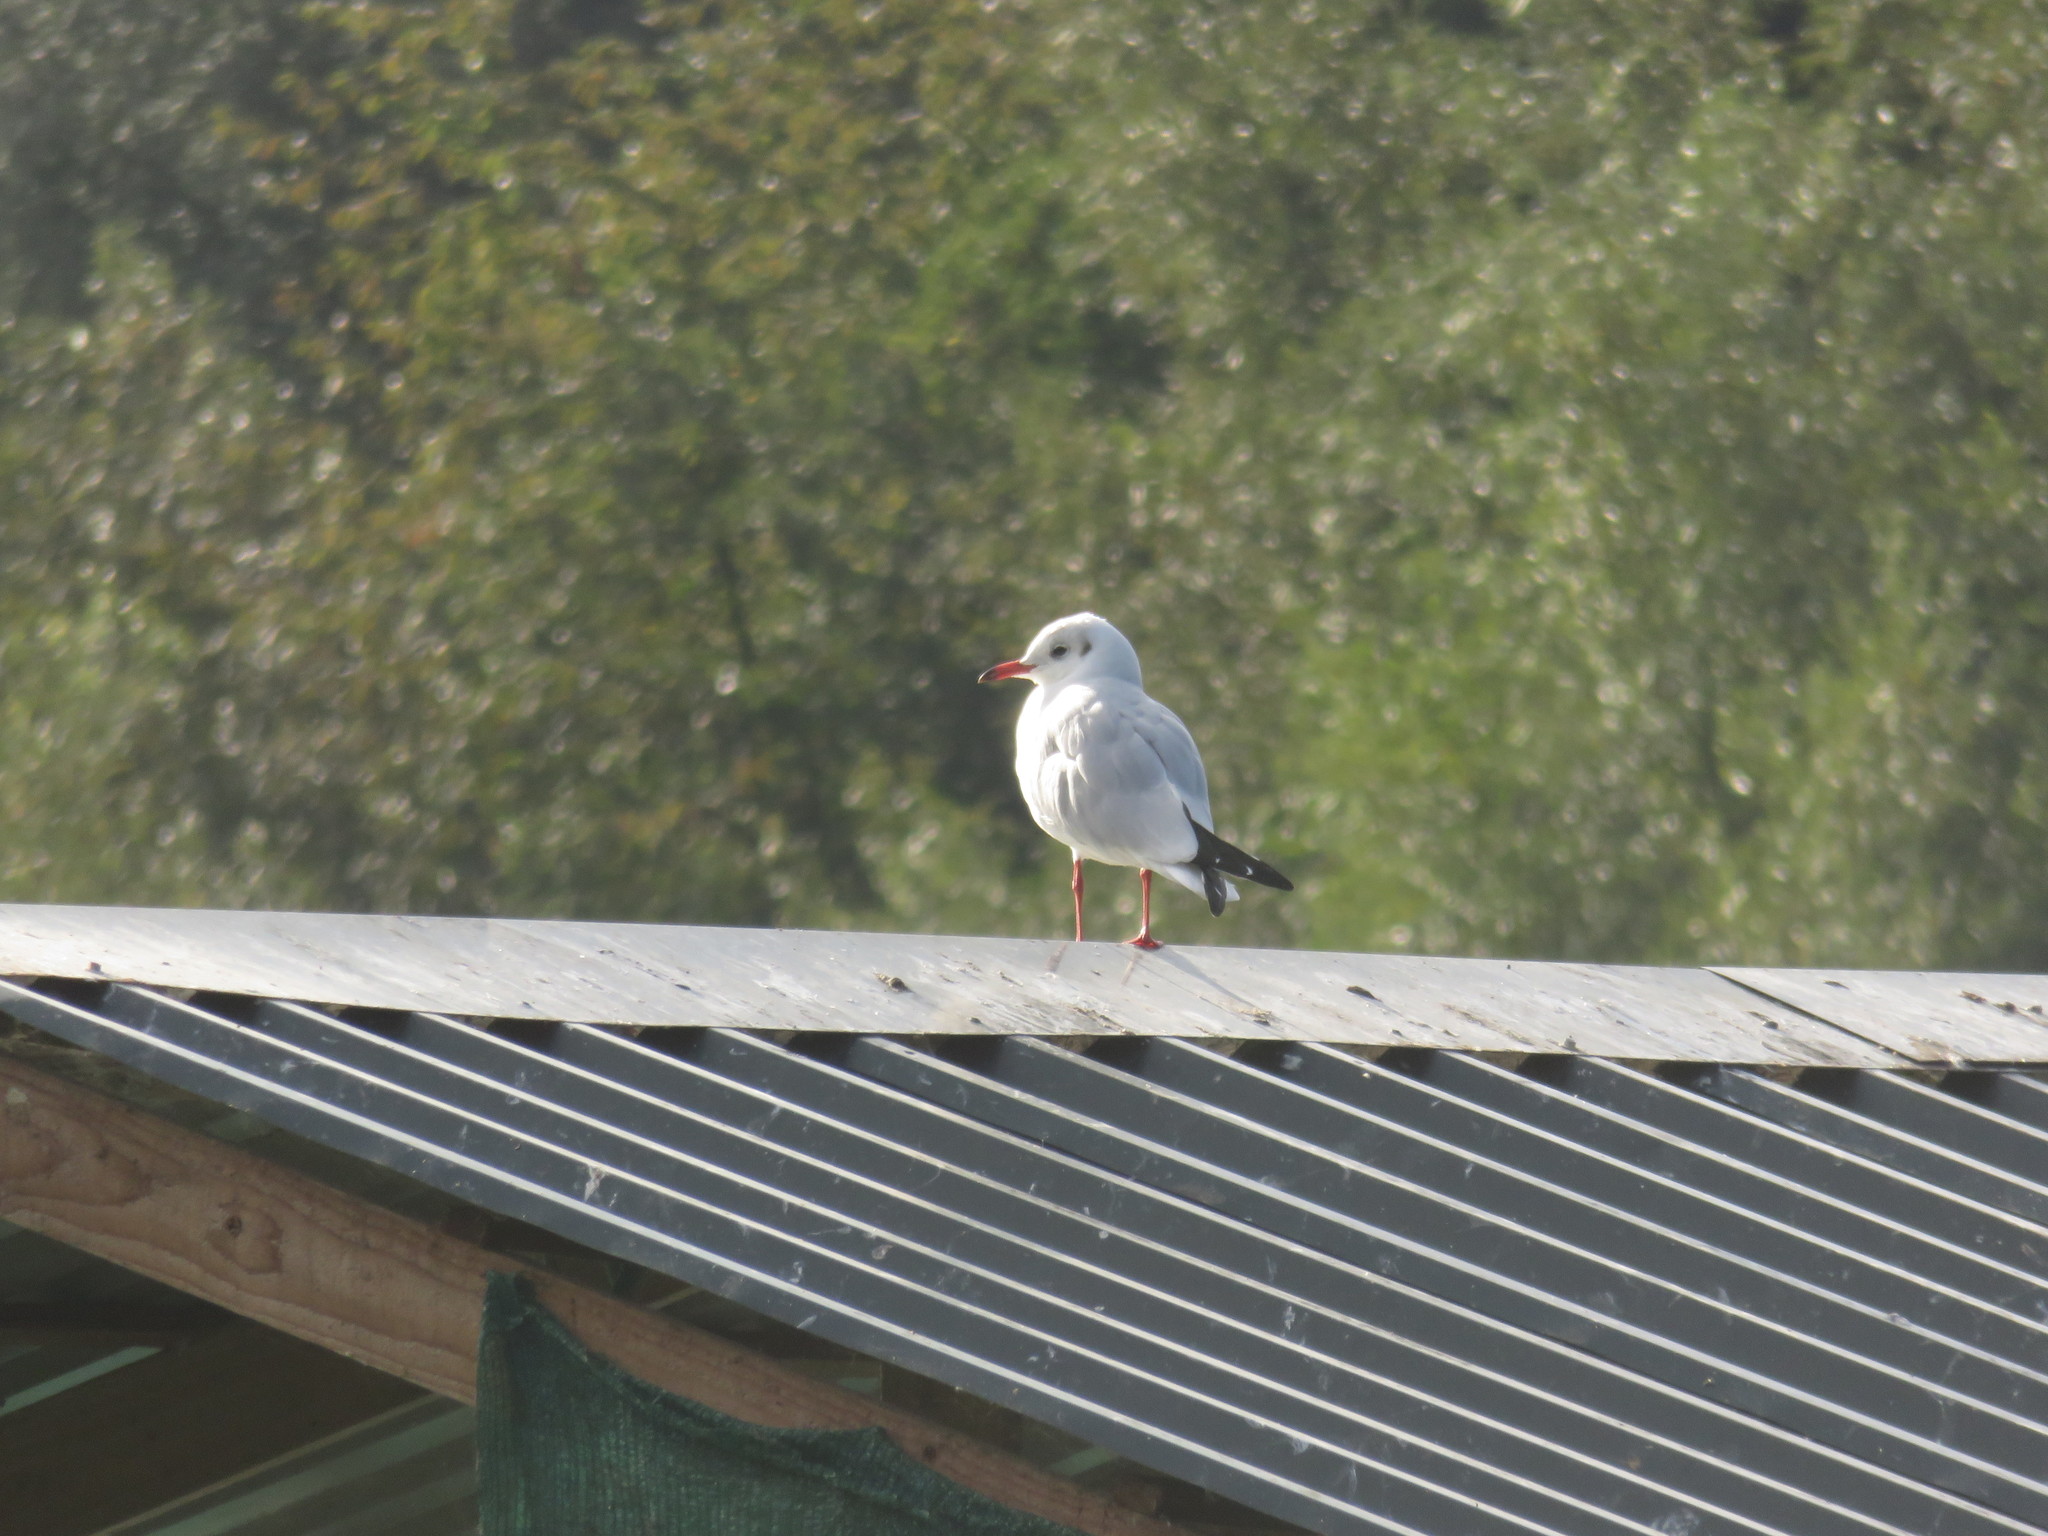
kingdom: Animalia
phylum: Chordata
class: Aves
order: Charadriiformes
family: Laridae
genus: Chroicocephalus
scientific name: Chroicocephalus ridibundus
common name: Black-headed gull
